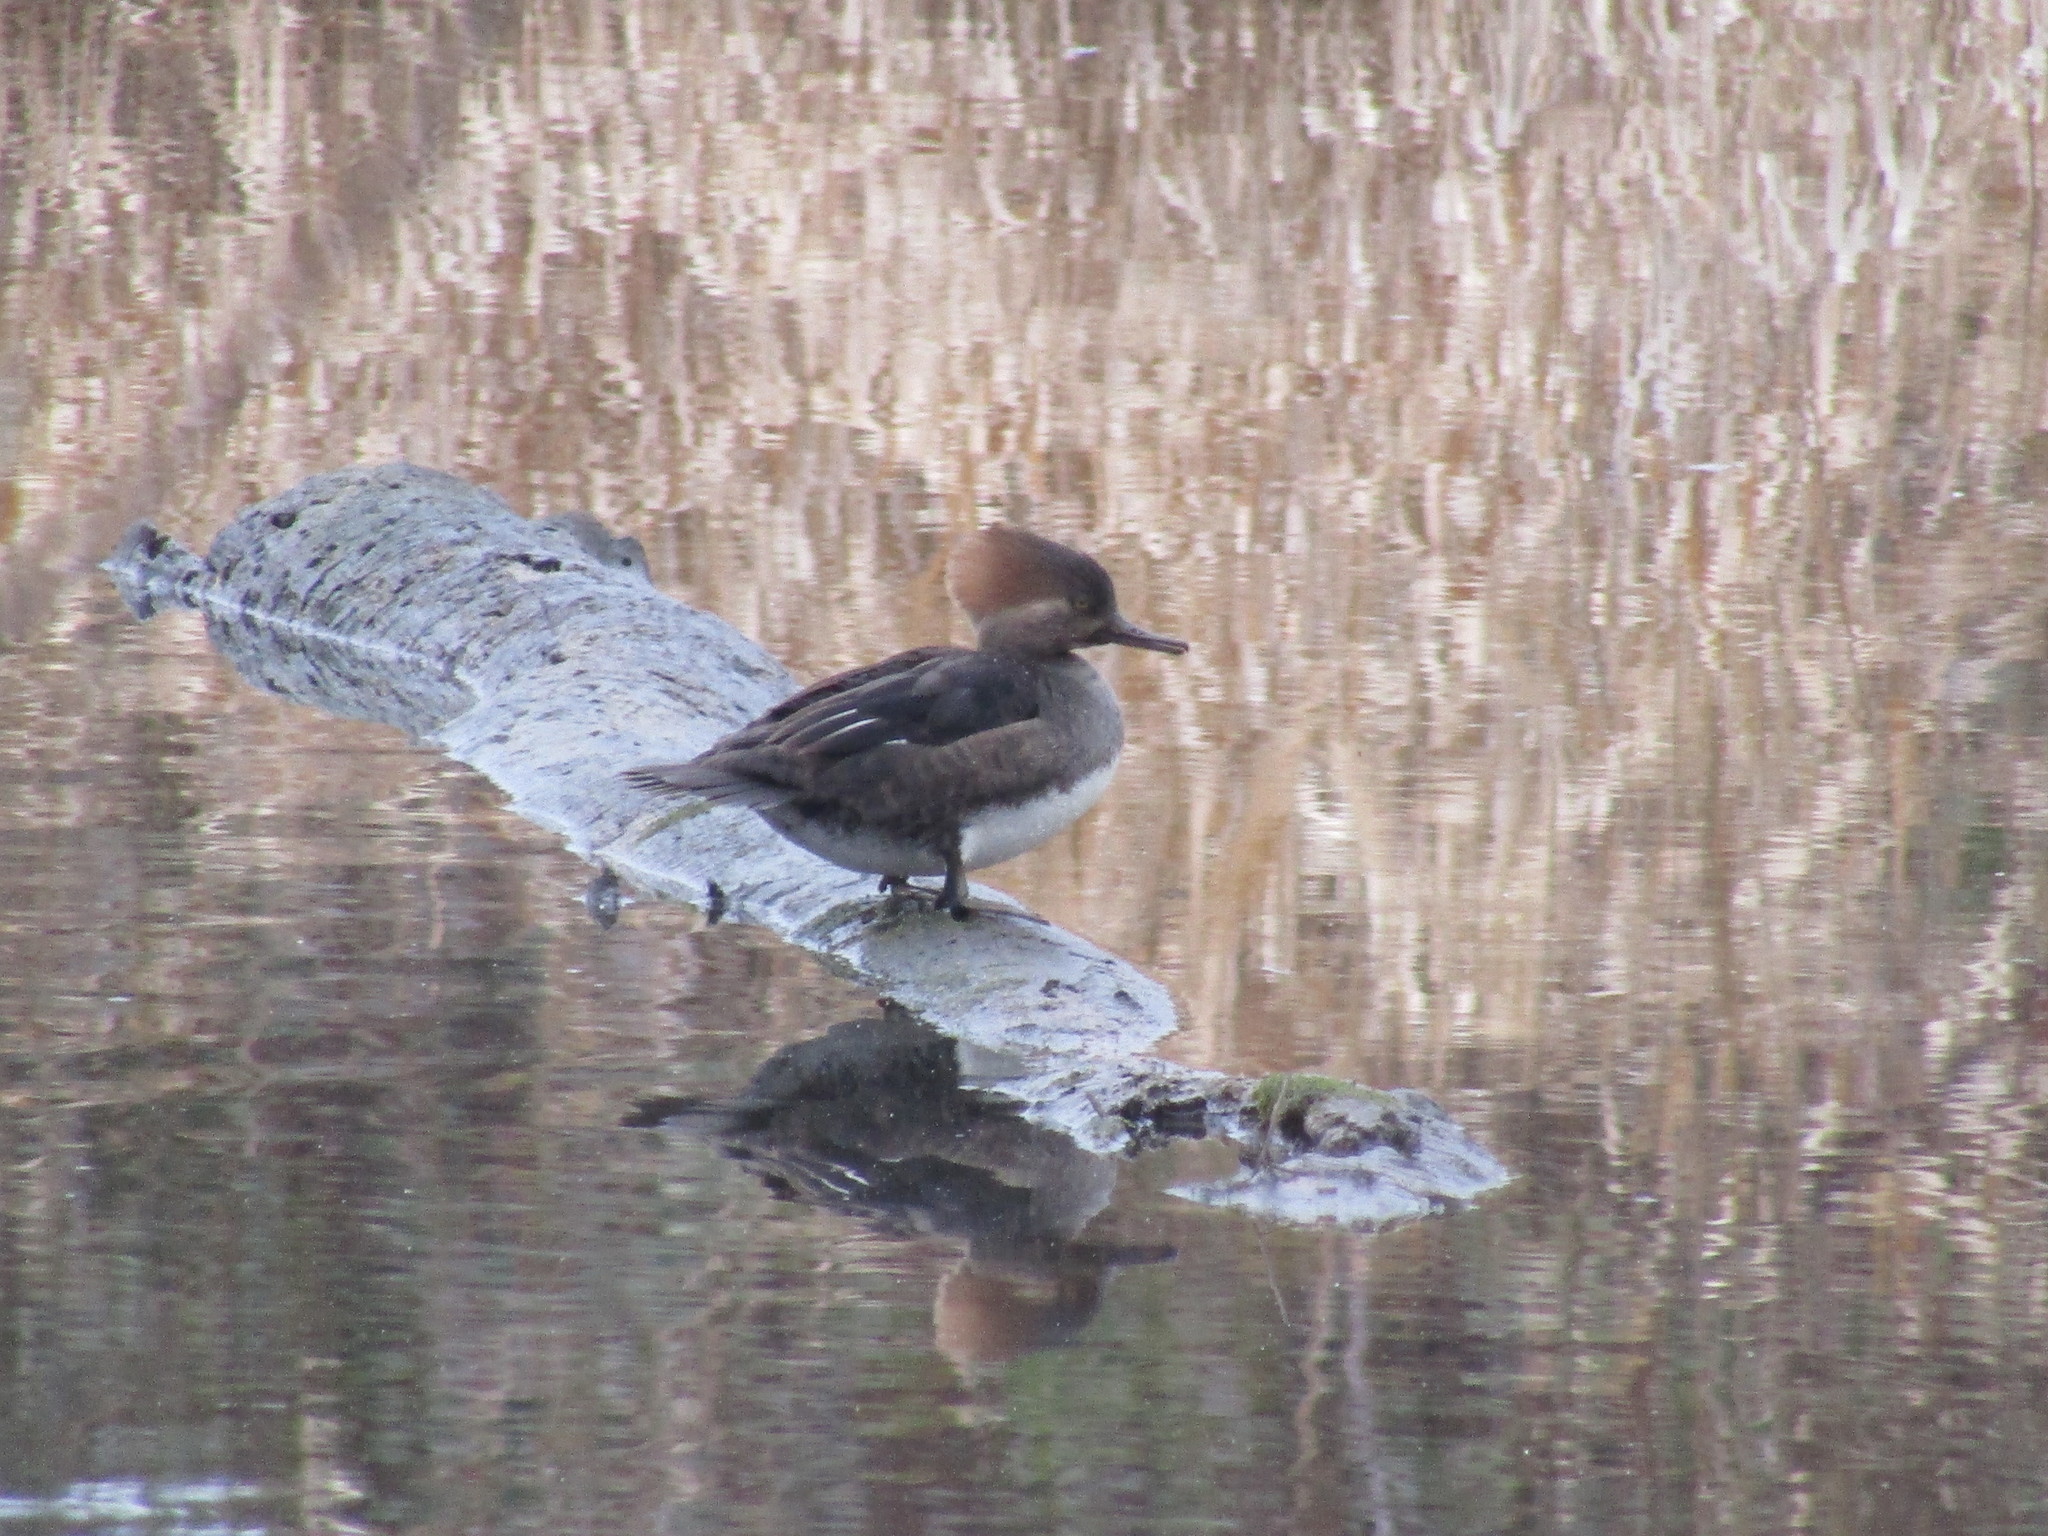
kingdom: Animalia
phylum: Chordata
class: Aves
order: Anseriformes
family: Anatidae
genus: Lophodytes
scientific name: Lophodytes cucullatus
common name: Hooded merganser
